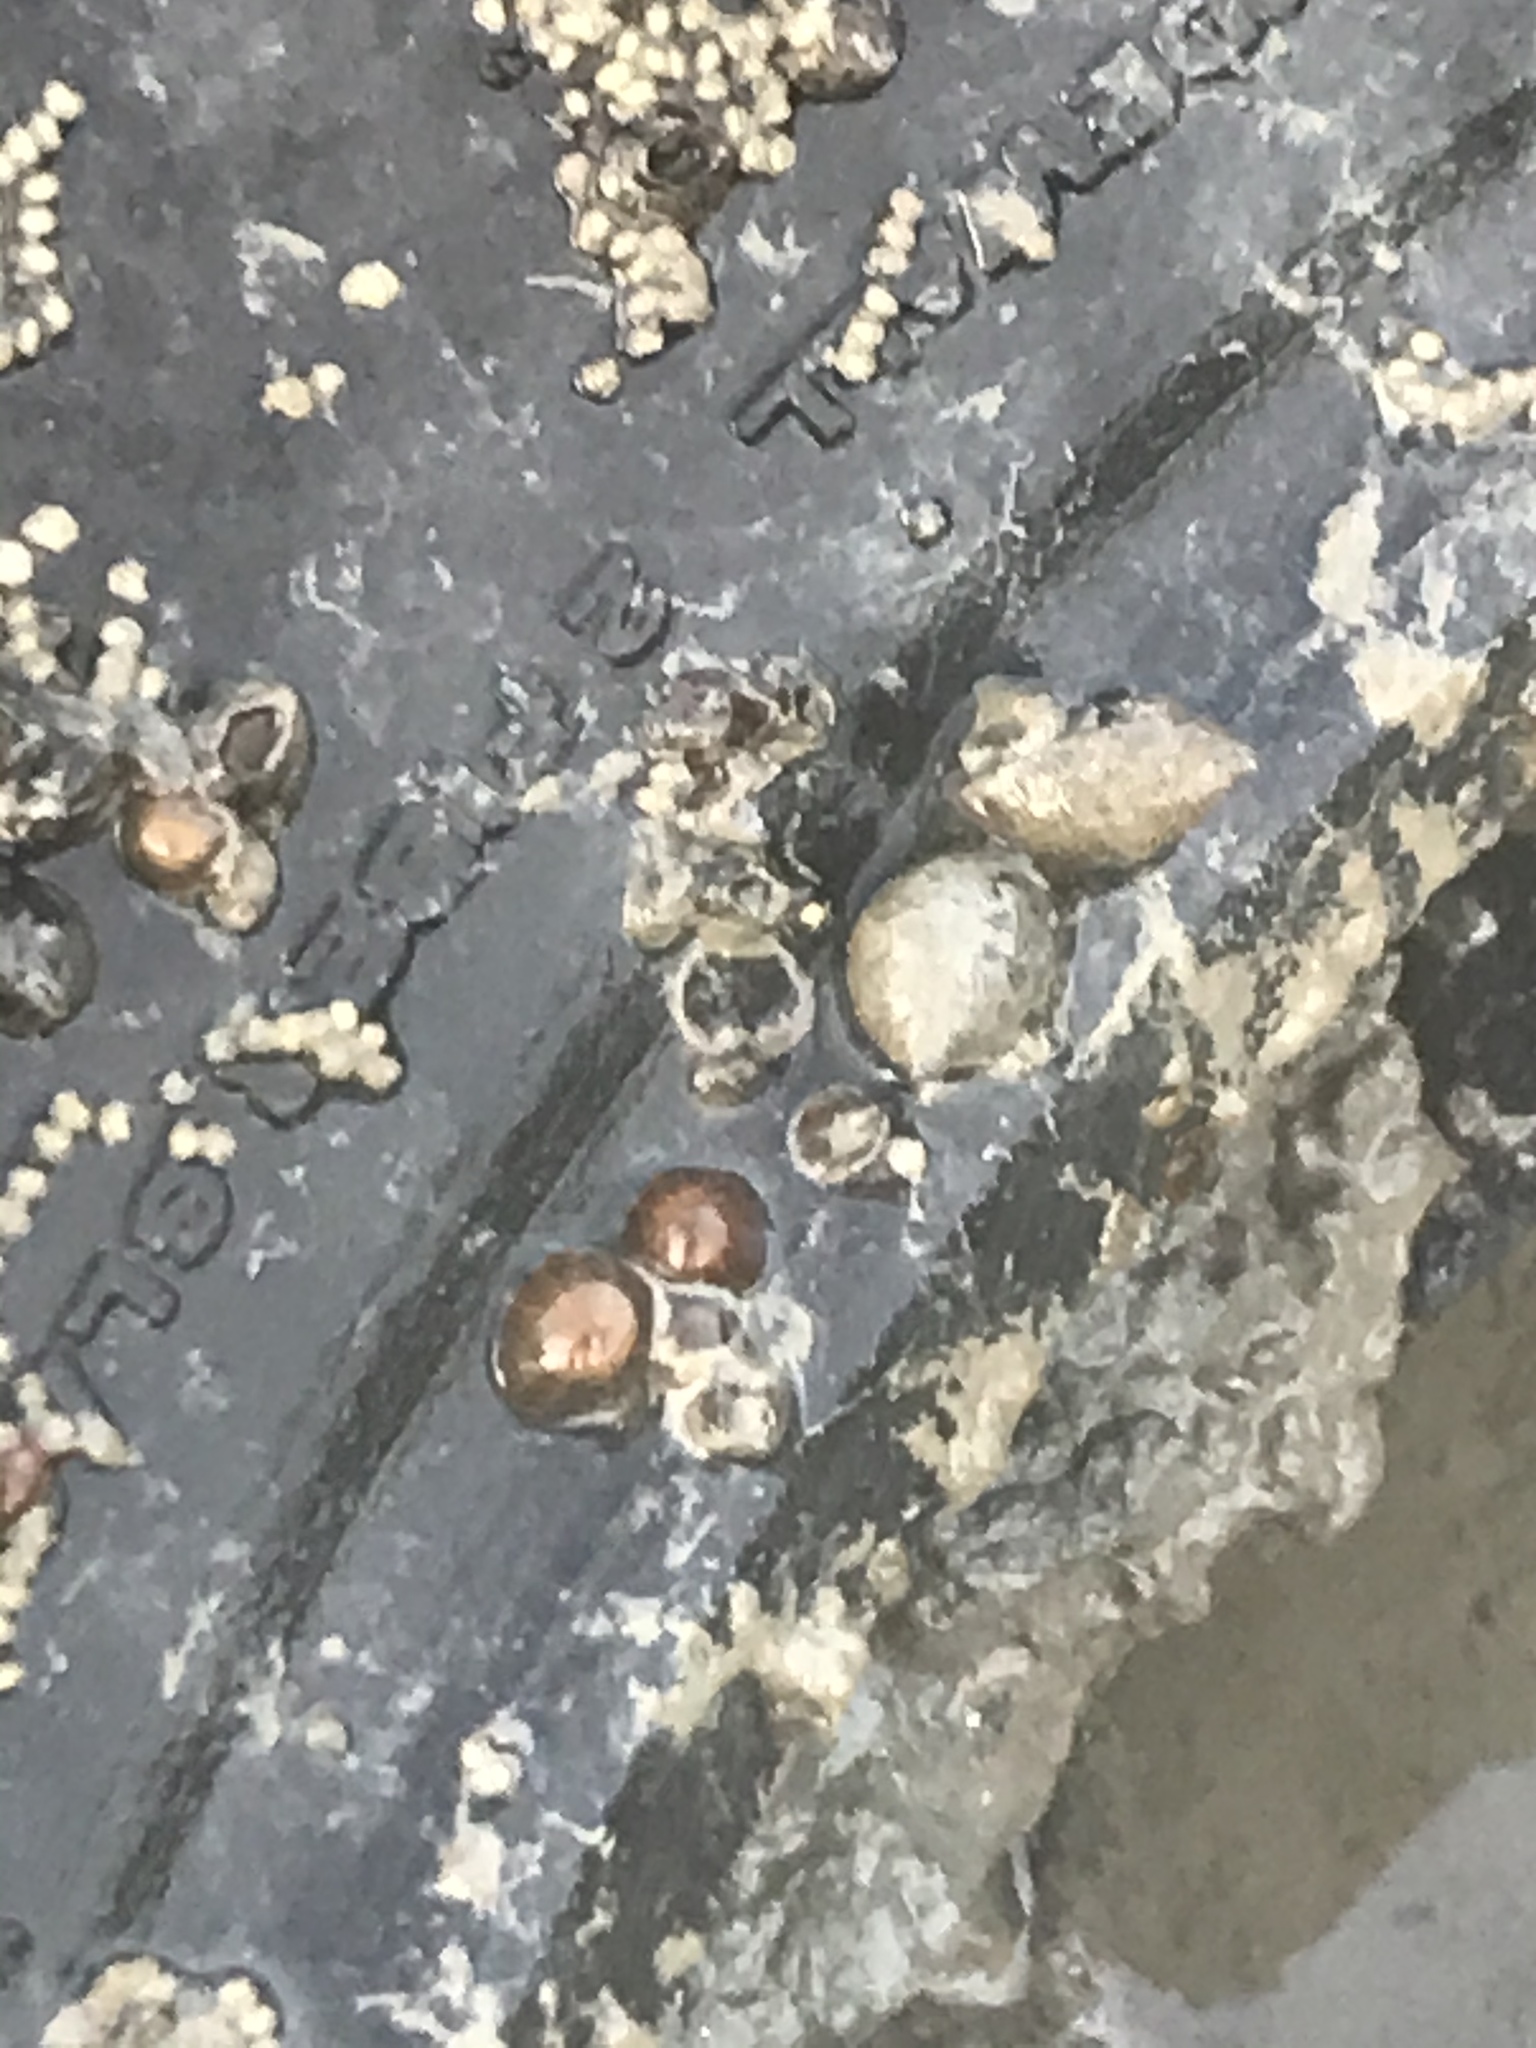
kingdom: Animalia
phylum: Cnidaria
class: Anthozoa
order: Actiniaria
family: Diadumenidae
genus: Diadumene
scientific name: Diadumene lineata
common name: Orange-striped anemone
